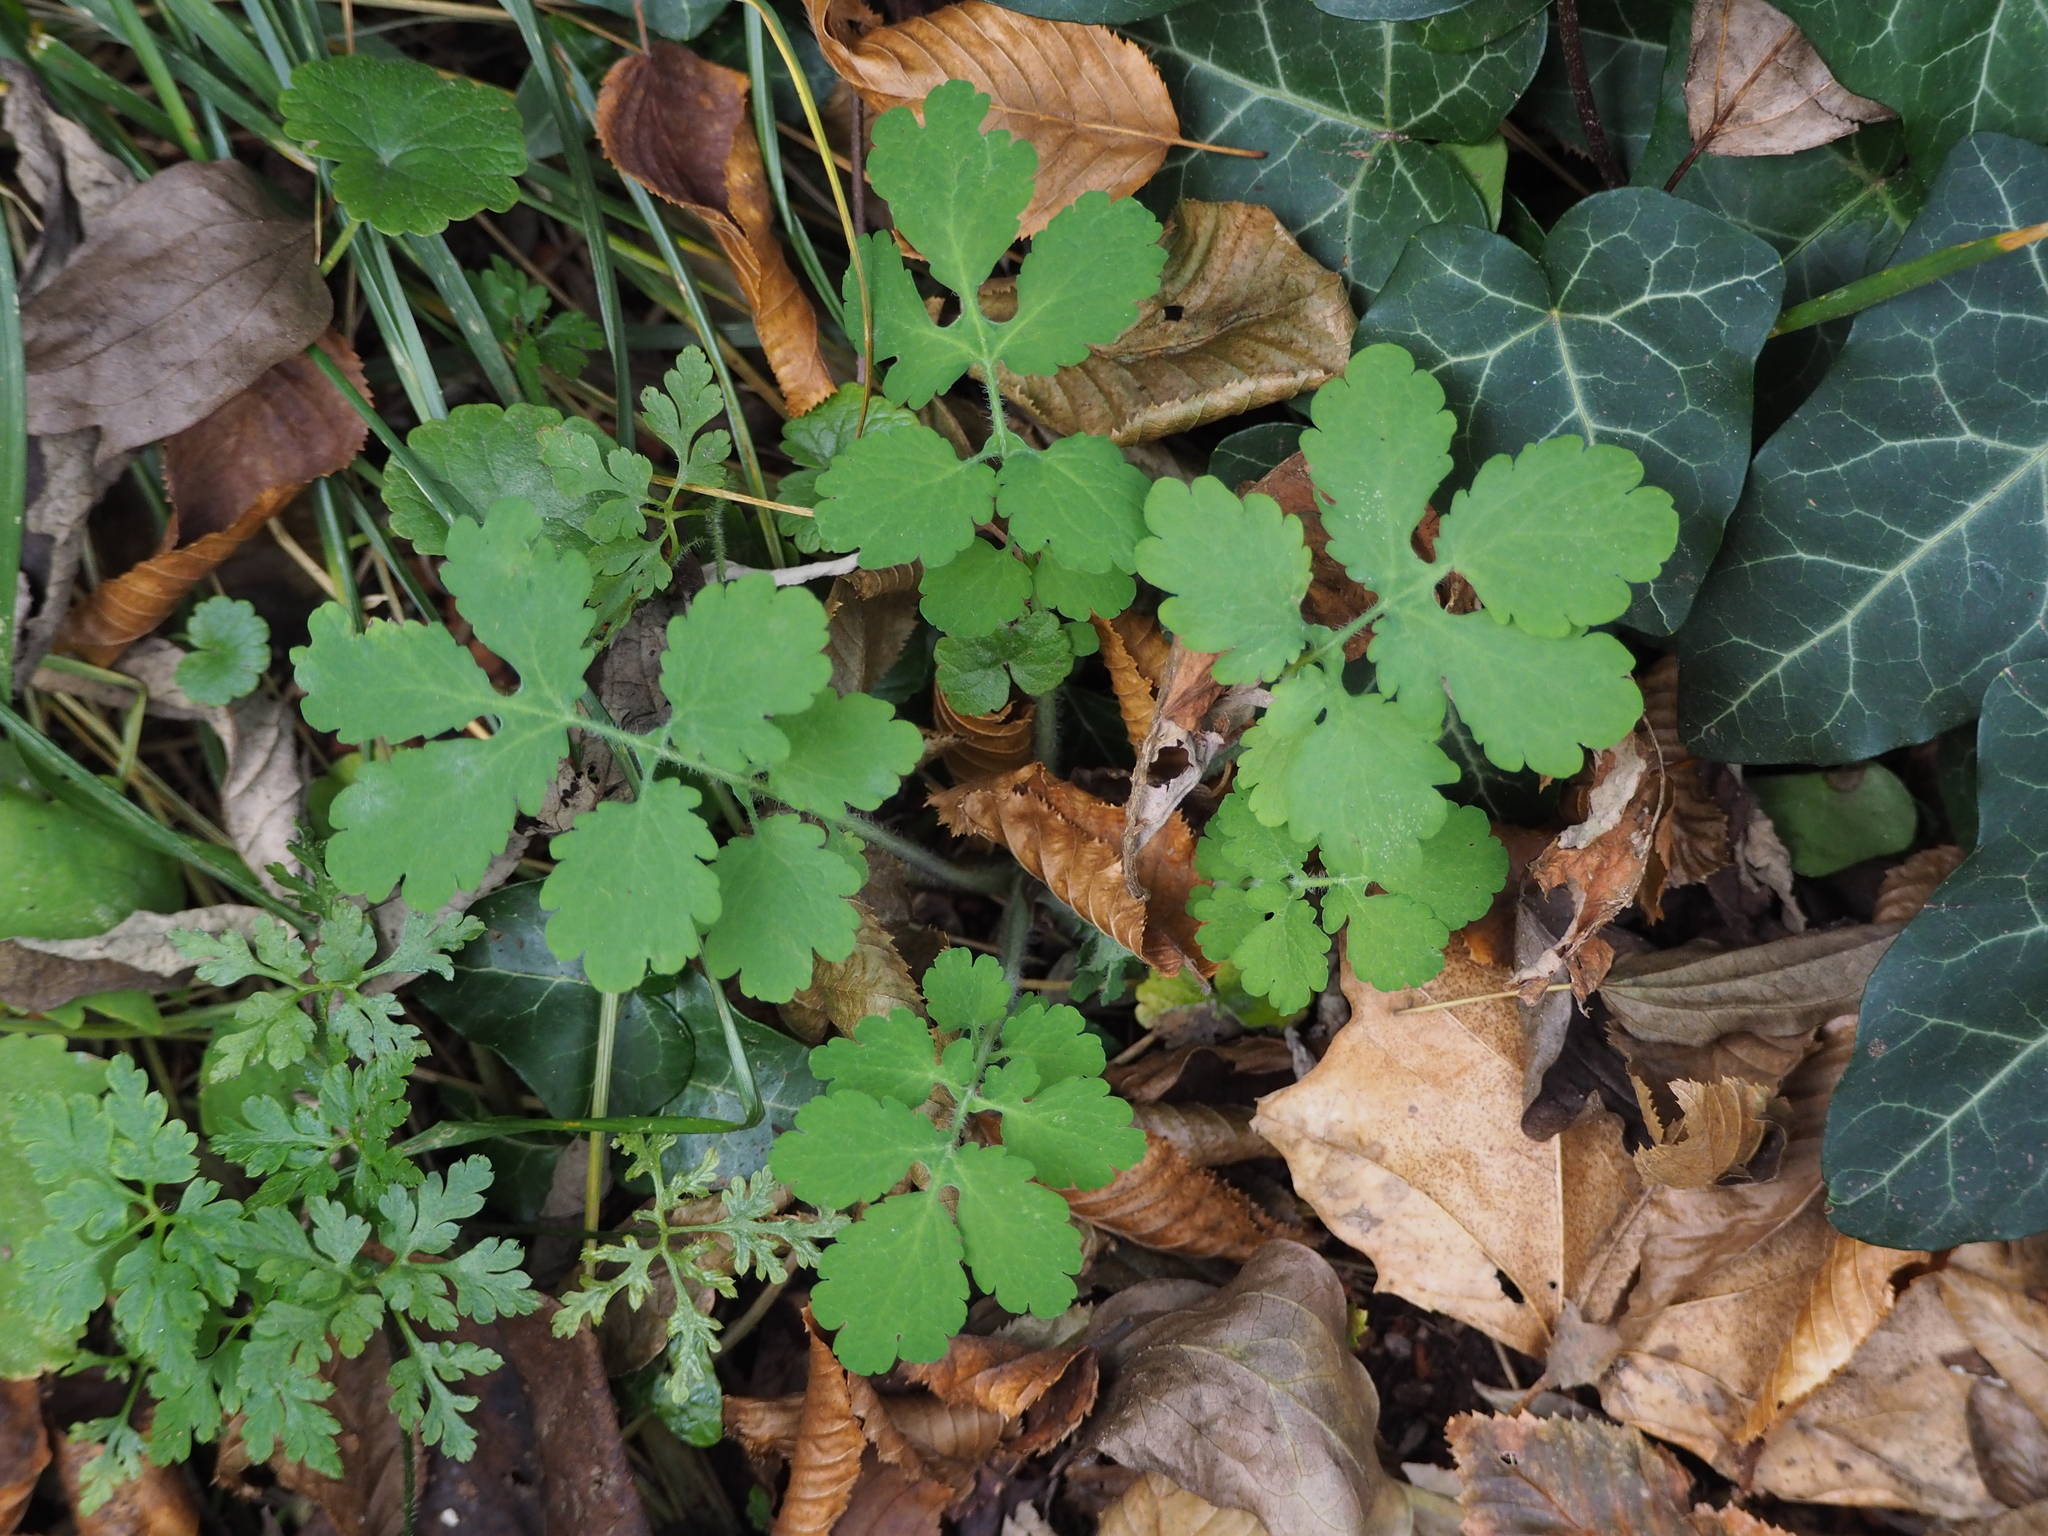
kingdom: Plantae
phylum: Tracheophyta
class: Magnoliopsida
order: Ranunculales
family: Papaveraceae
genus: Chelidonium
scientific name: Chelidonium majus
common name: Greater celandine
